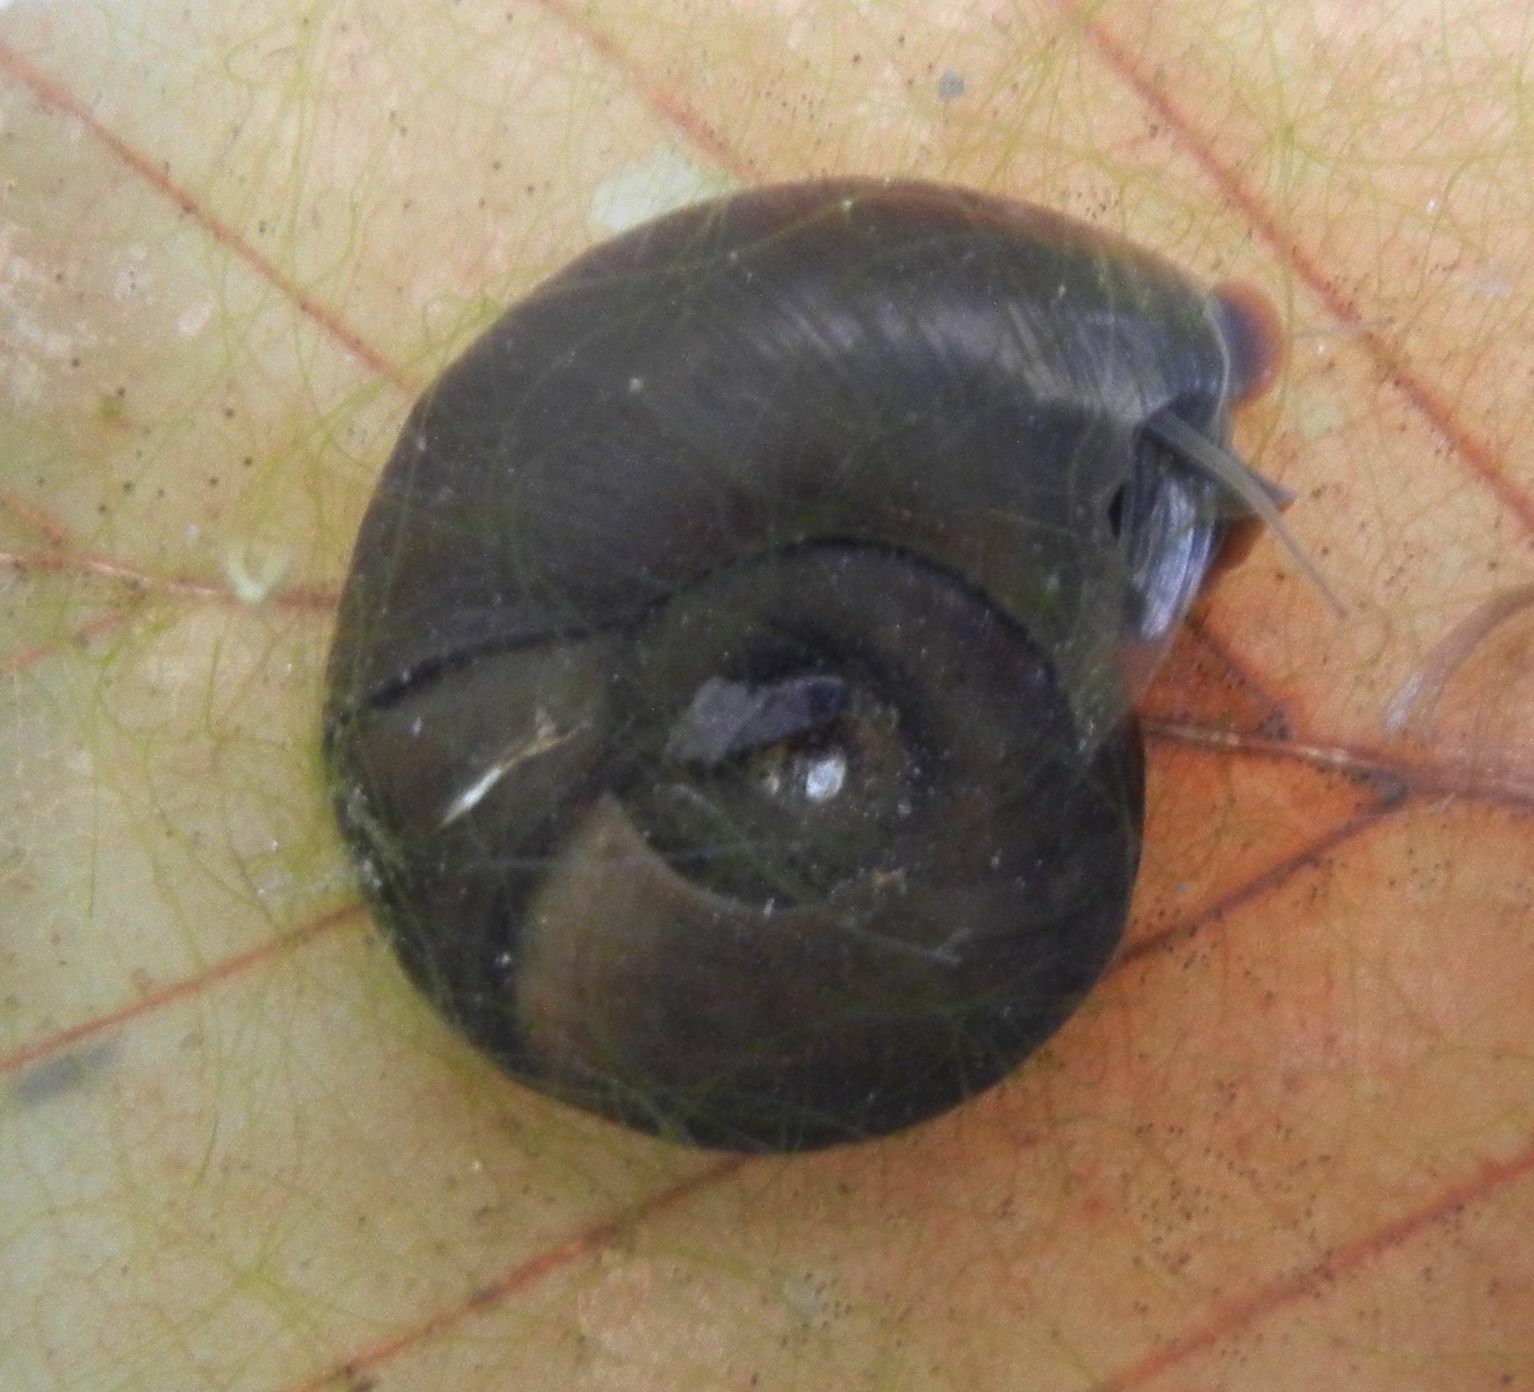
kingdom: Animalia
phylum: Mollusca
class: Gastropoda
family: Planorbidae
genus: Planorbarius
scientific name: Planorbarius corneus
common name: Great ramshorn
